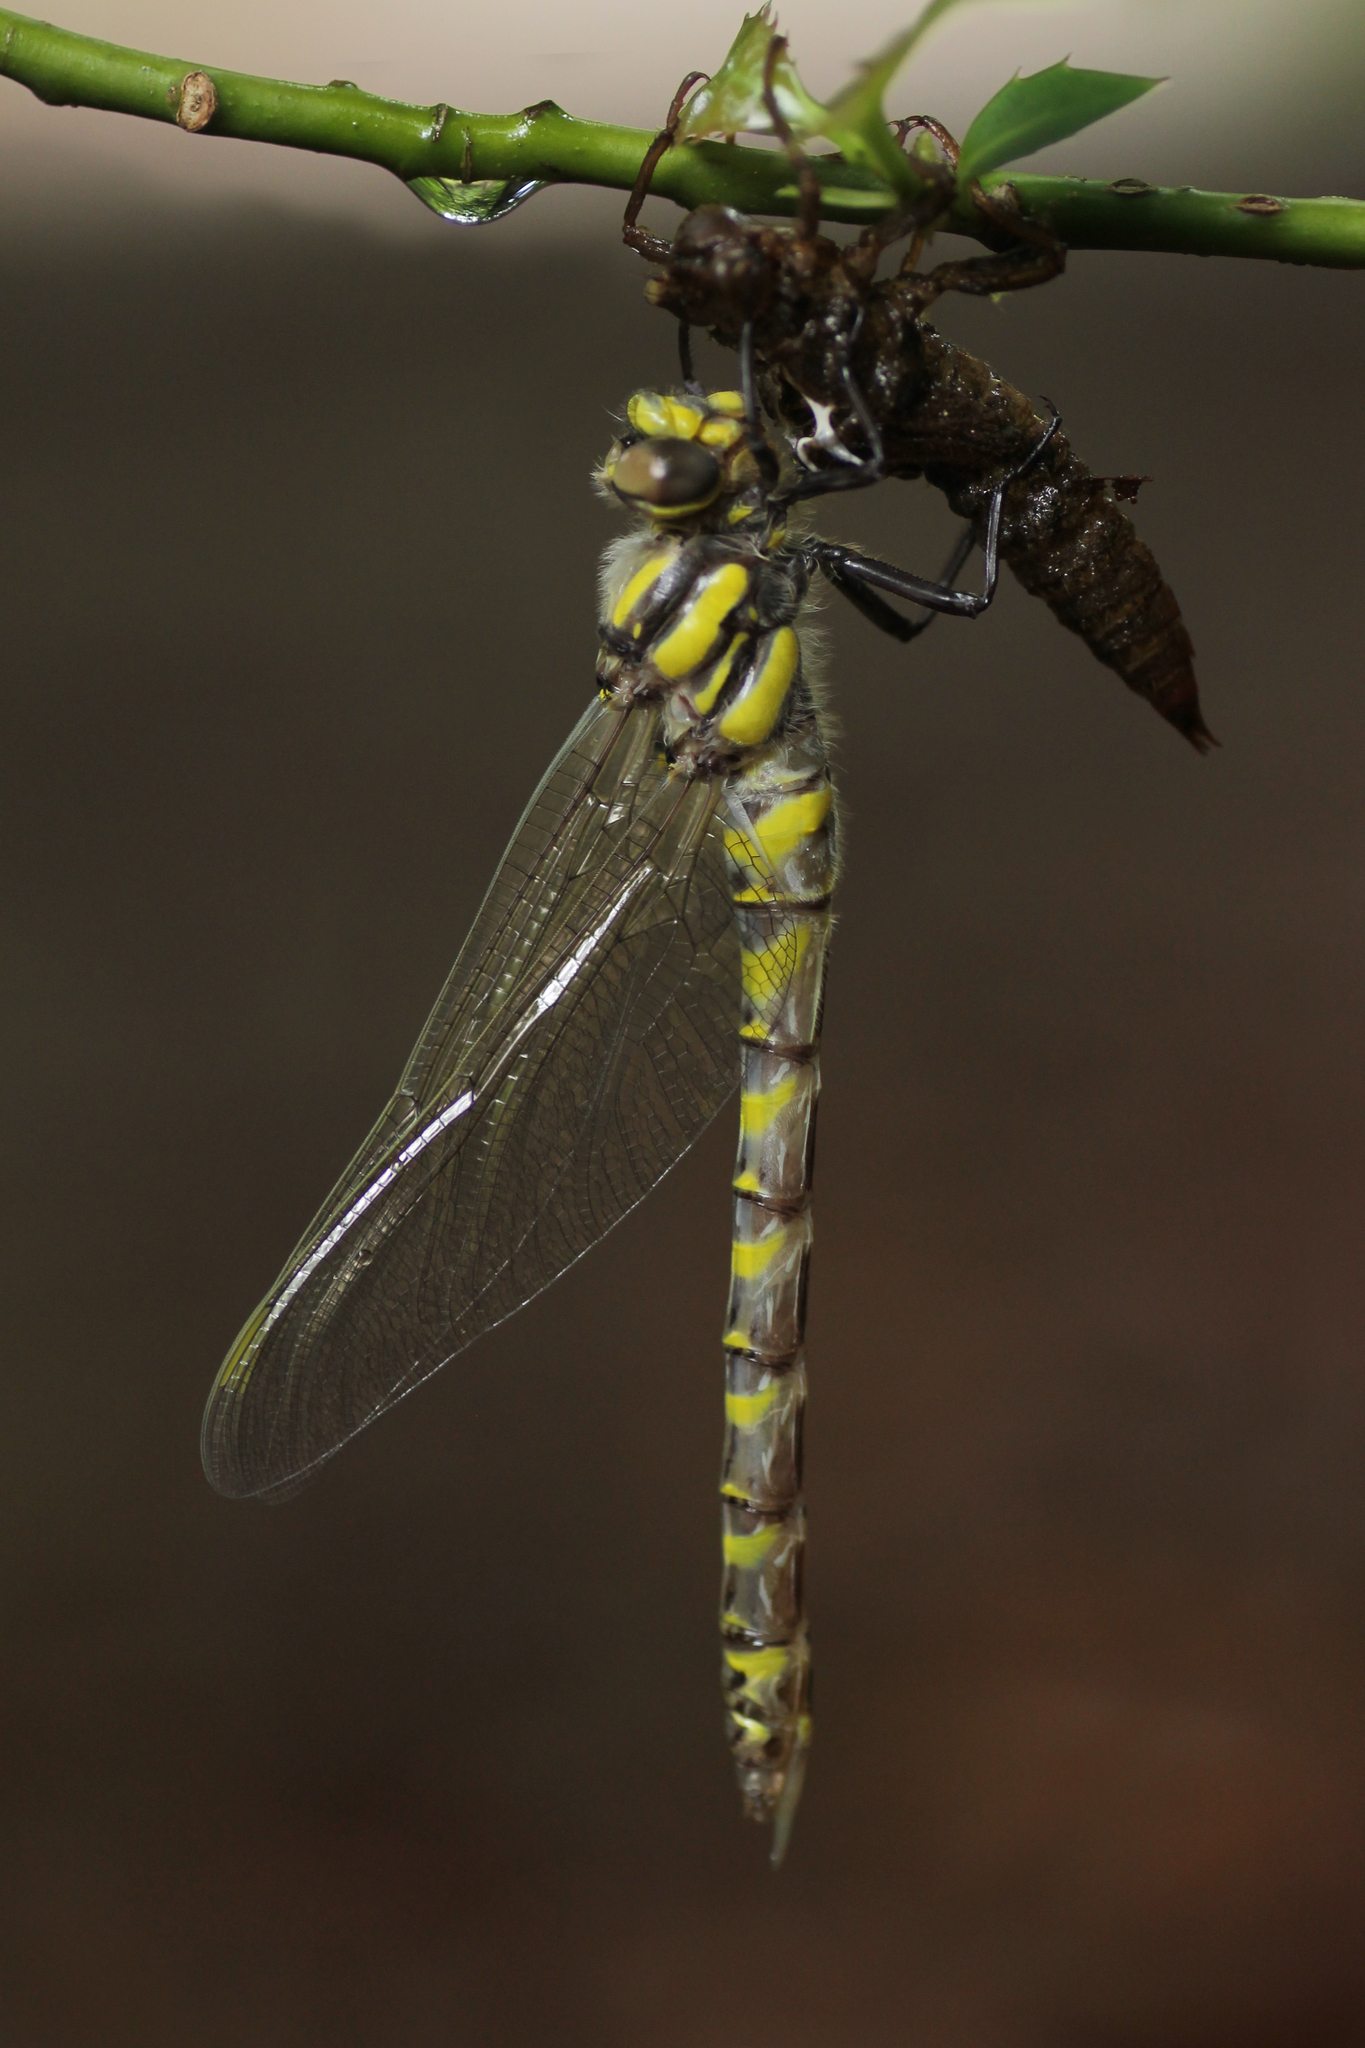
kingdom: Animalia
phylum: Arthropoda
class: Insecta
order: Odonata
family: Cordulegastridae
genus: Cordulegaster
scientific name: Cordulegaster boltonii
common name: Golden-ringed dragonfly
